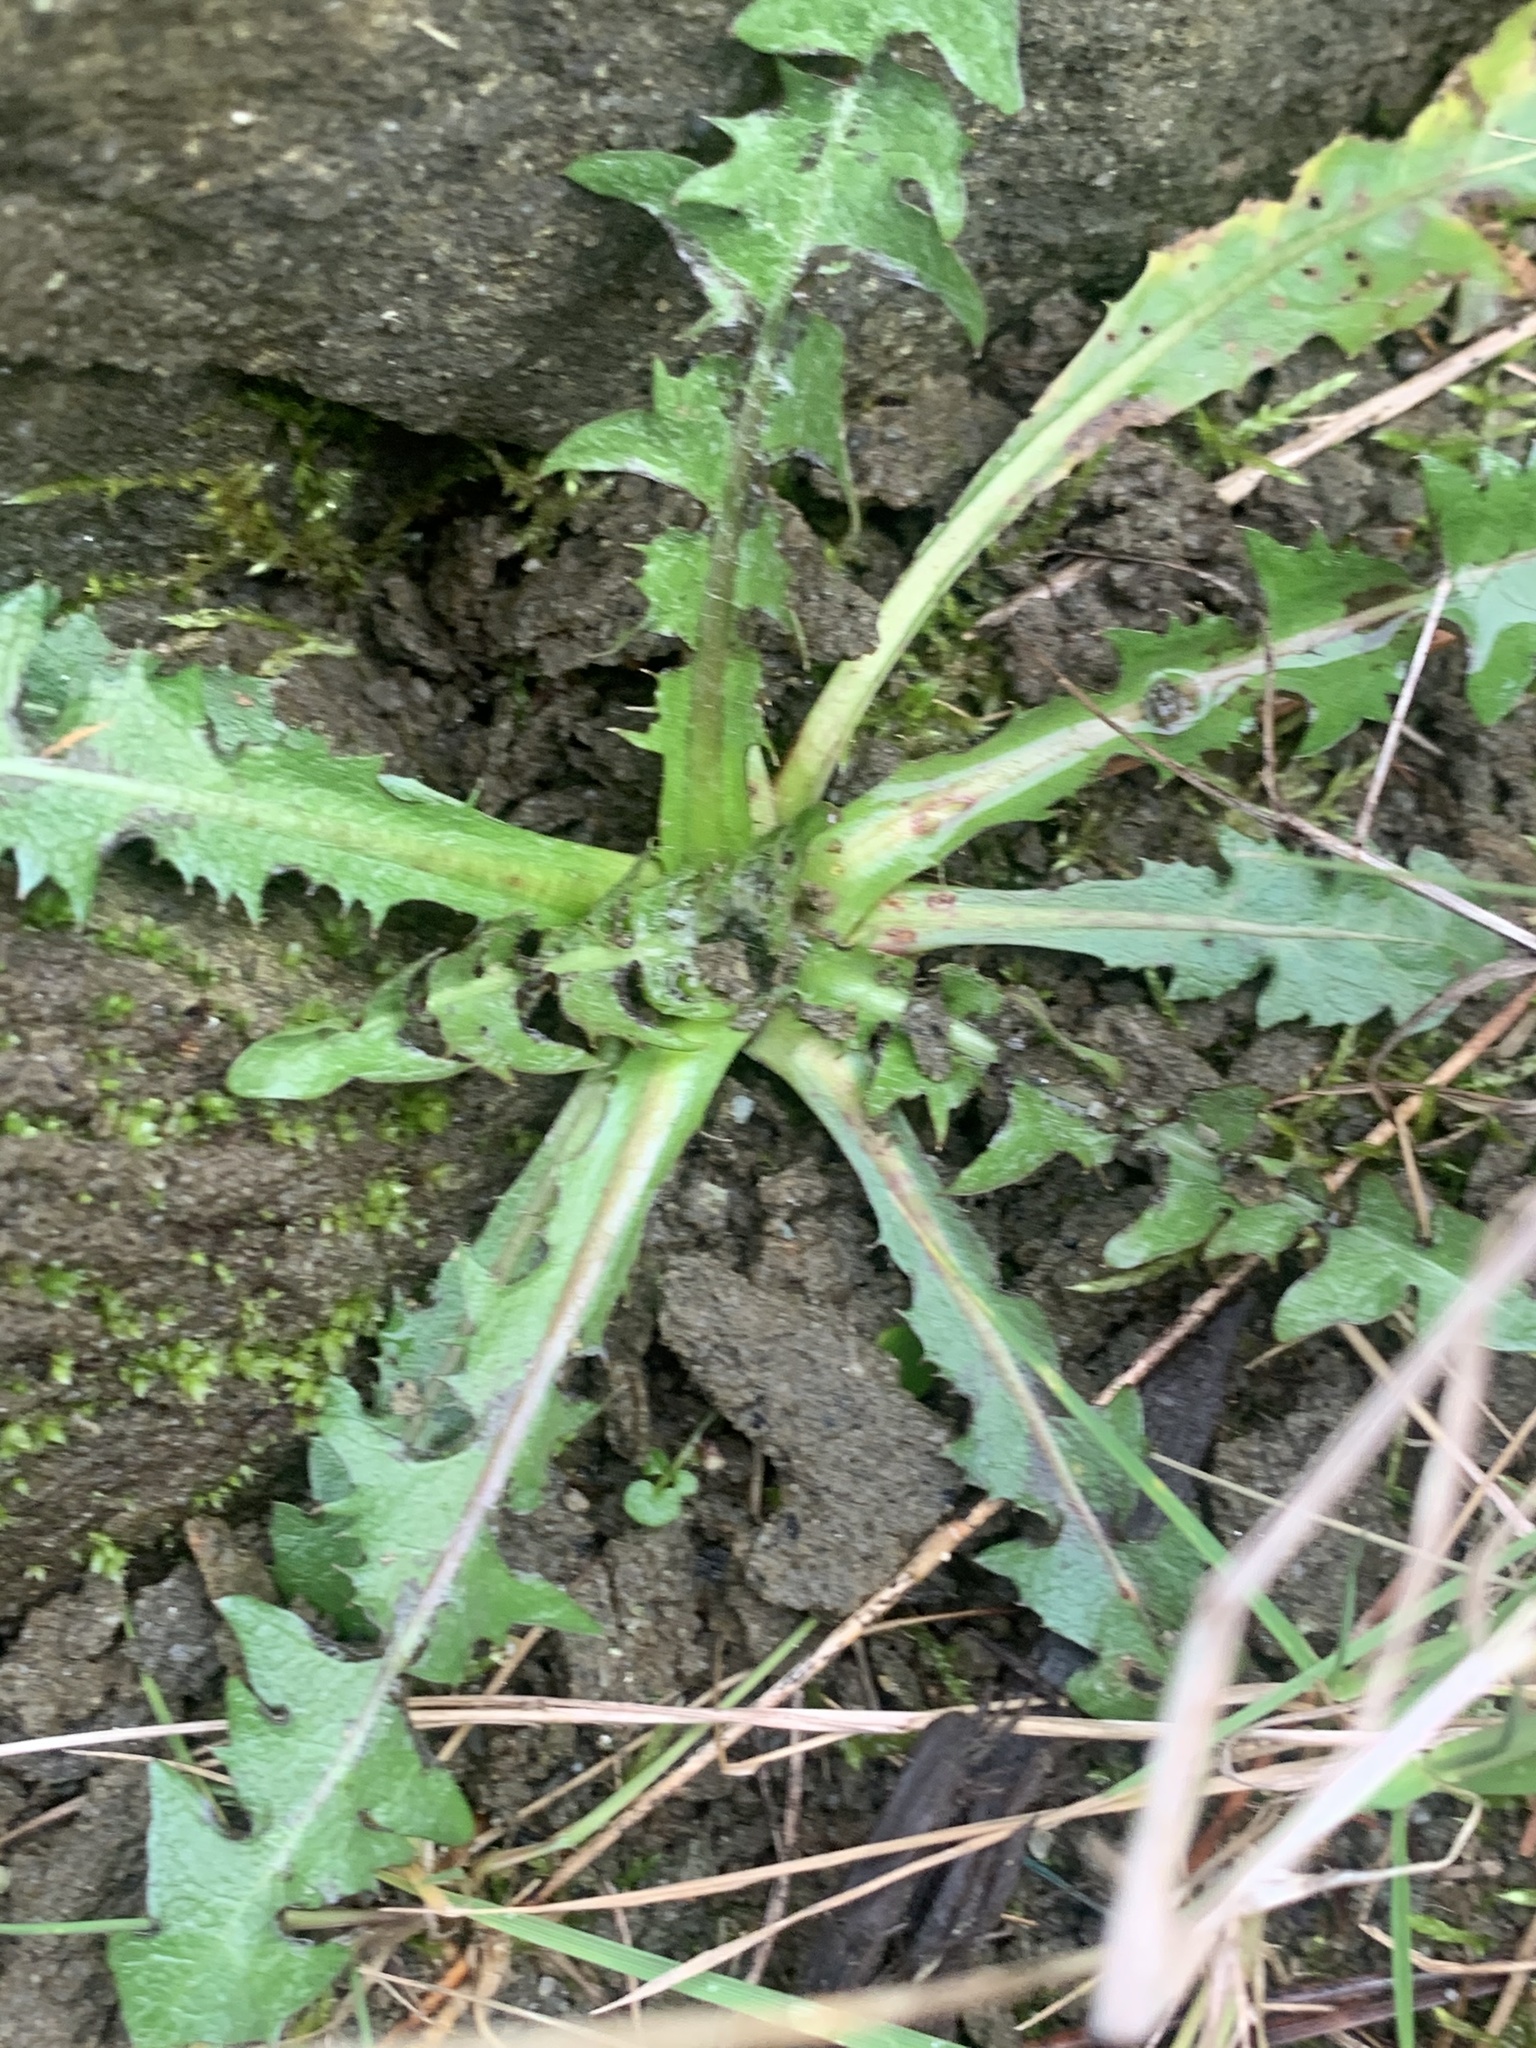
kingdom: Plantae
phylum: Tracheophyta
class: Magnoliopsida
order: Asterales
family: Asteraceae
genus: Taraxacum
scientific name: Taraxacum officinale
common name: Common dandelion
